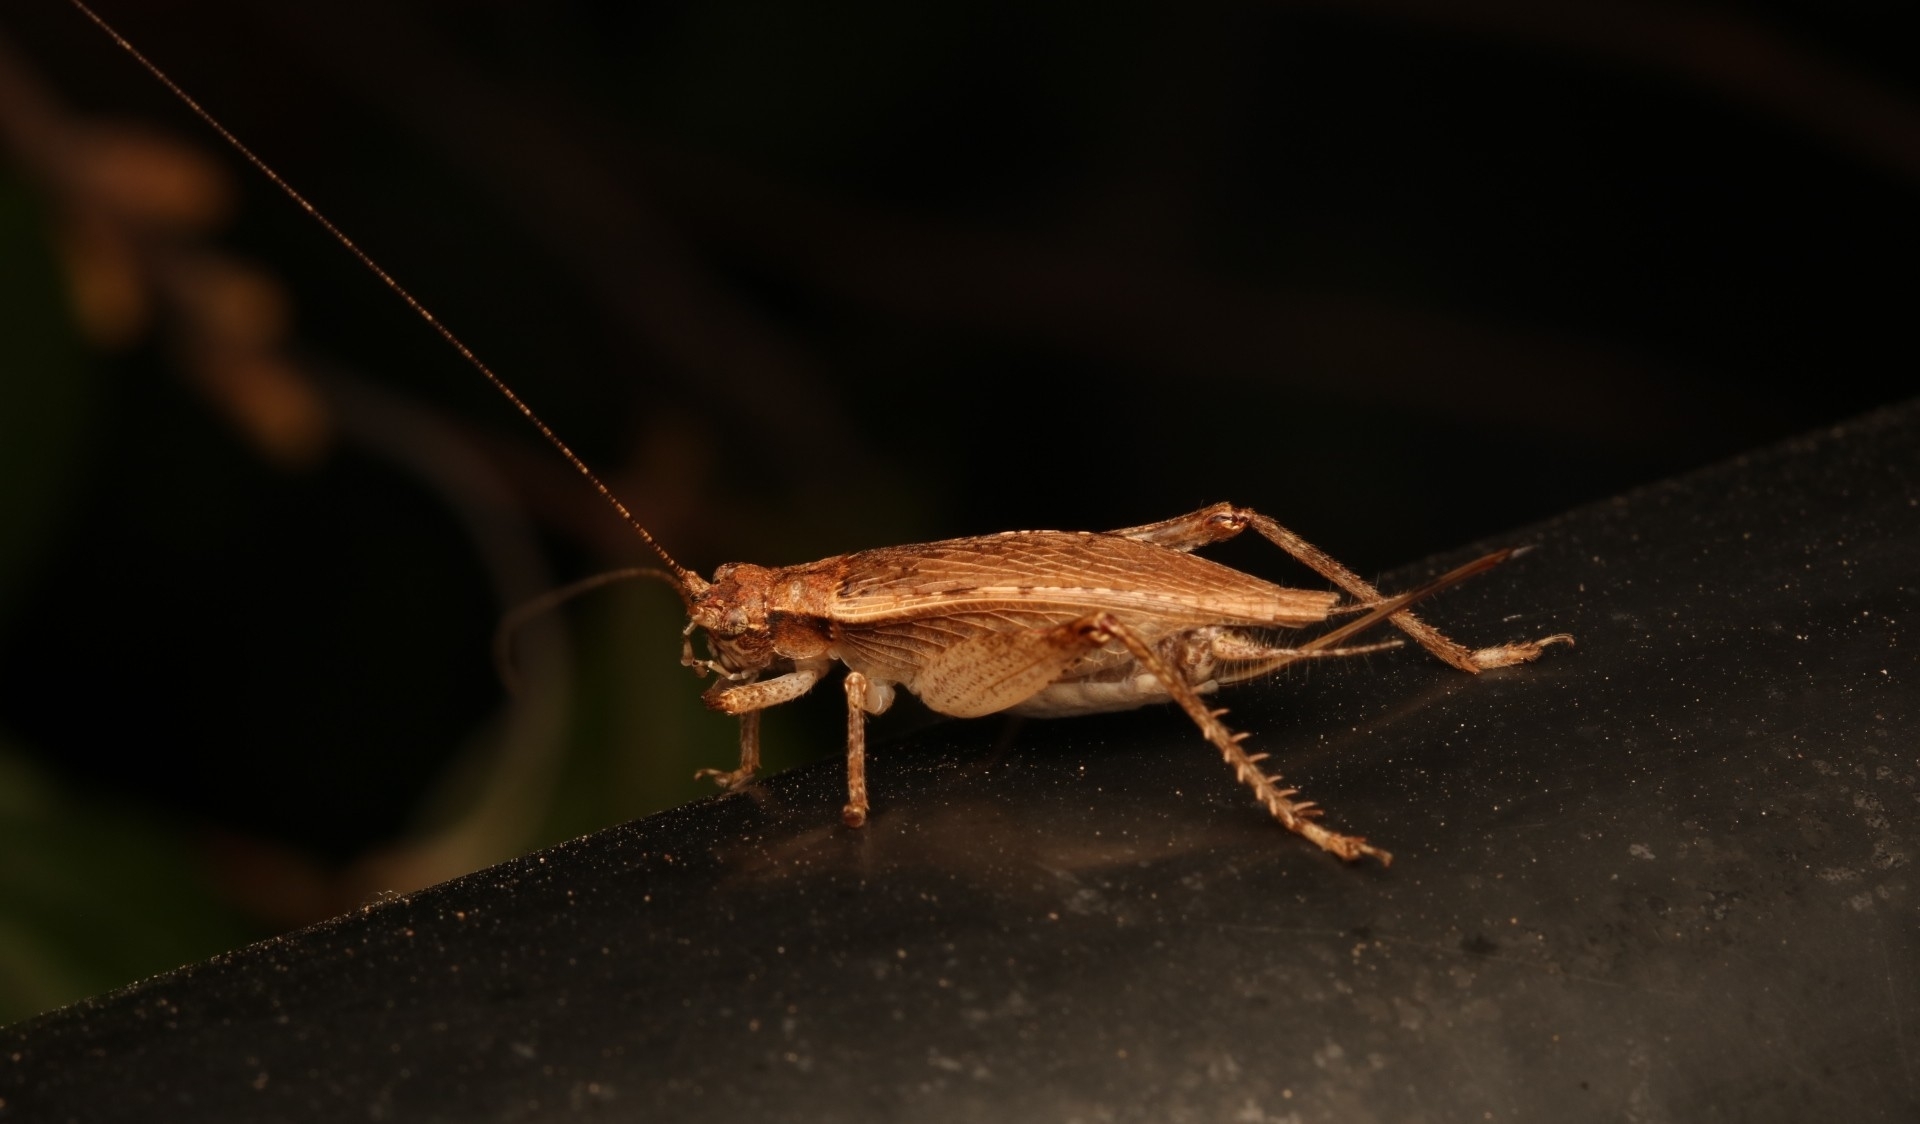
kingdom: Animalia
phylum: Arthropoda
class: Insecta
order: Orthoptera
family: Gryllidae
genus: Hapithus
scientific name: Hapithus saltator
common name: Jumping bush cricket
